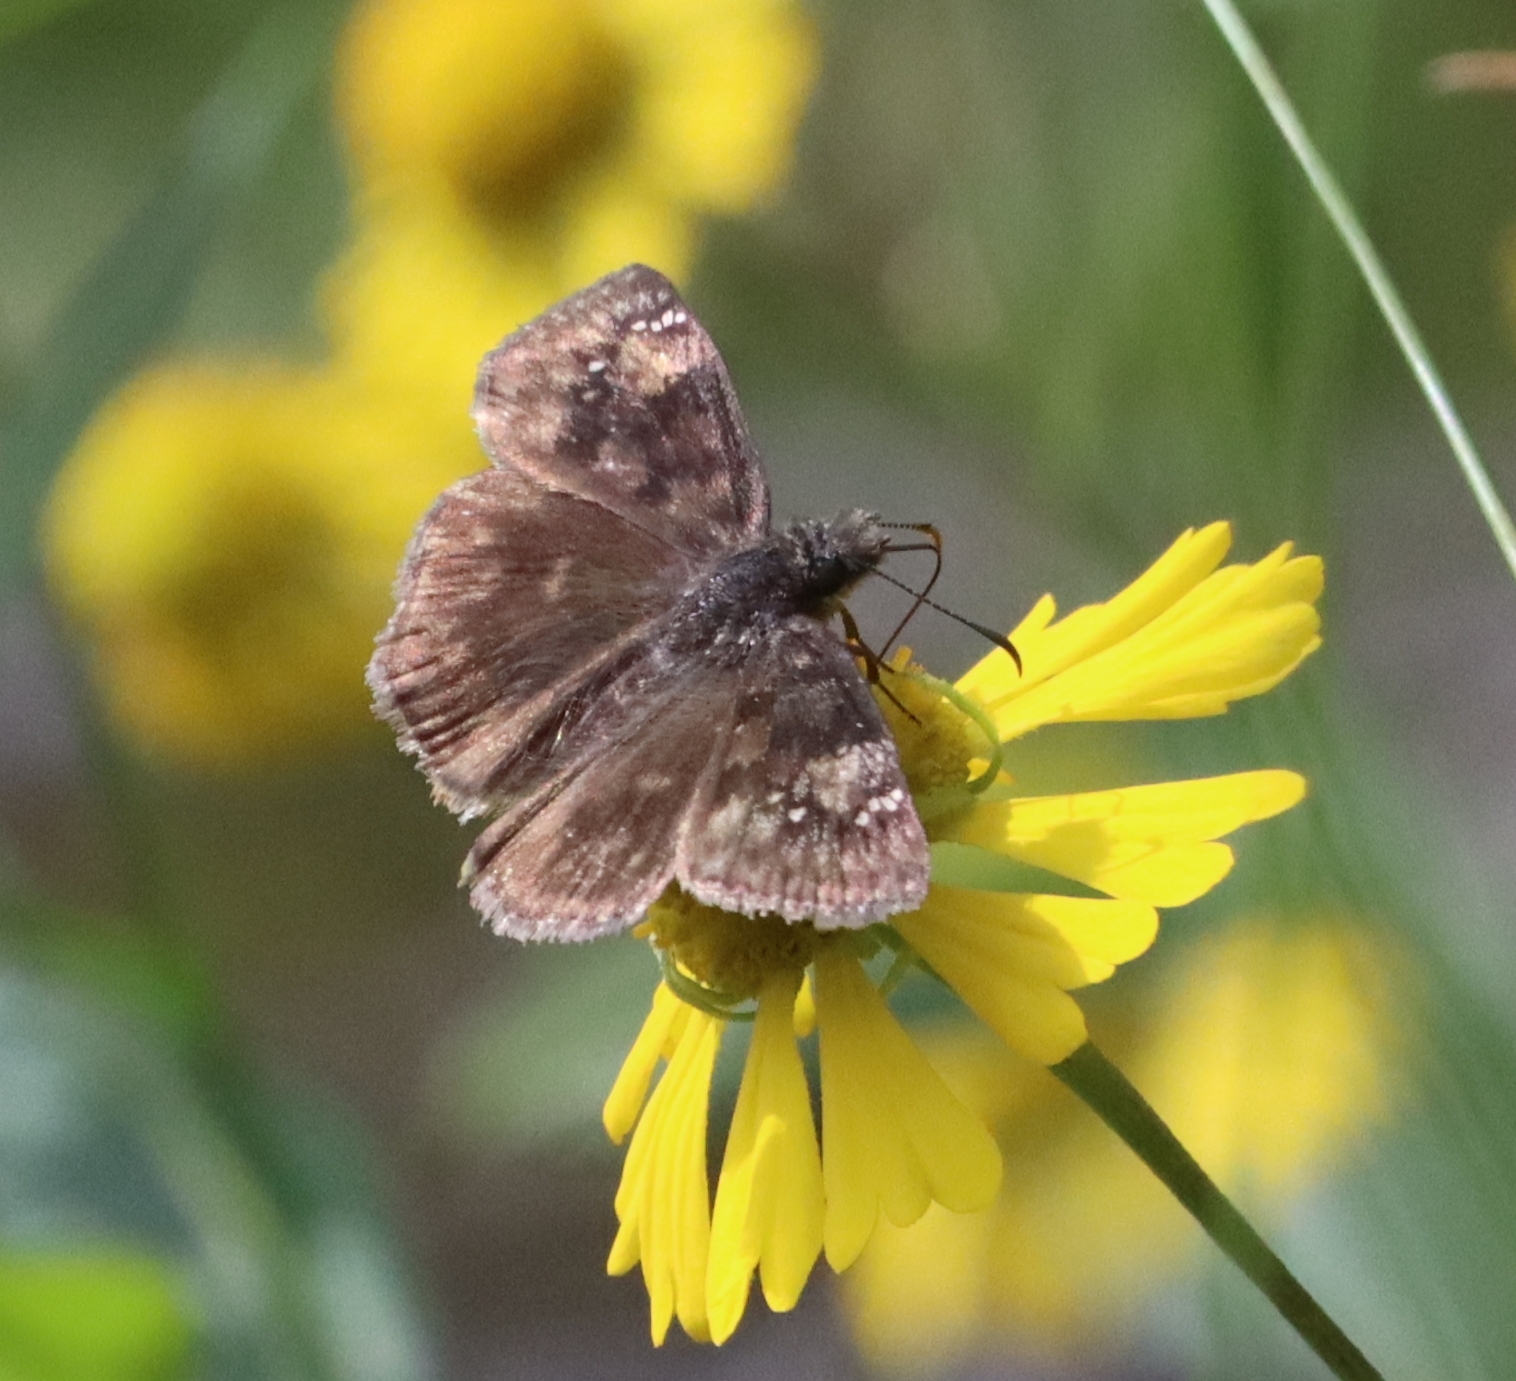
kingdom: Animalia
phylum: Arthropoda
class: Insecta
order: Lepidoptera
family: Hesperiidae
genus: Erynnis
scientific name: Erynnis baptisiae
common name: Wild indigo duskywing
